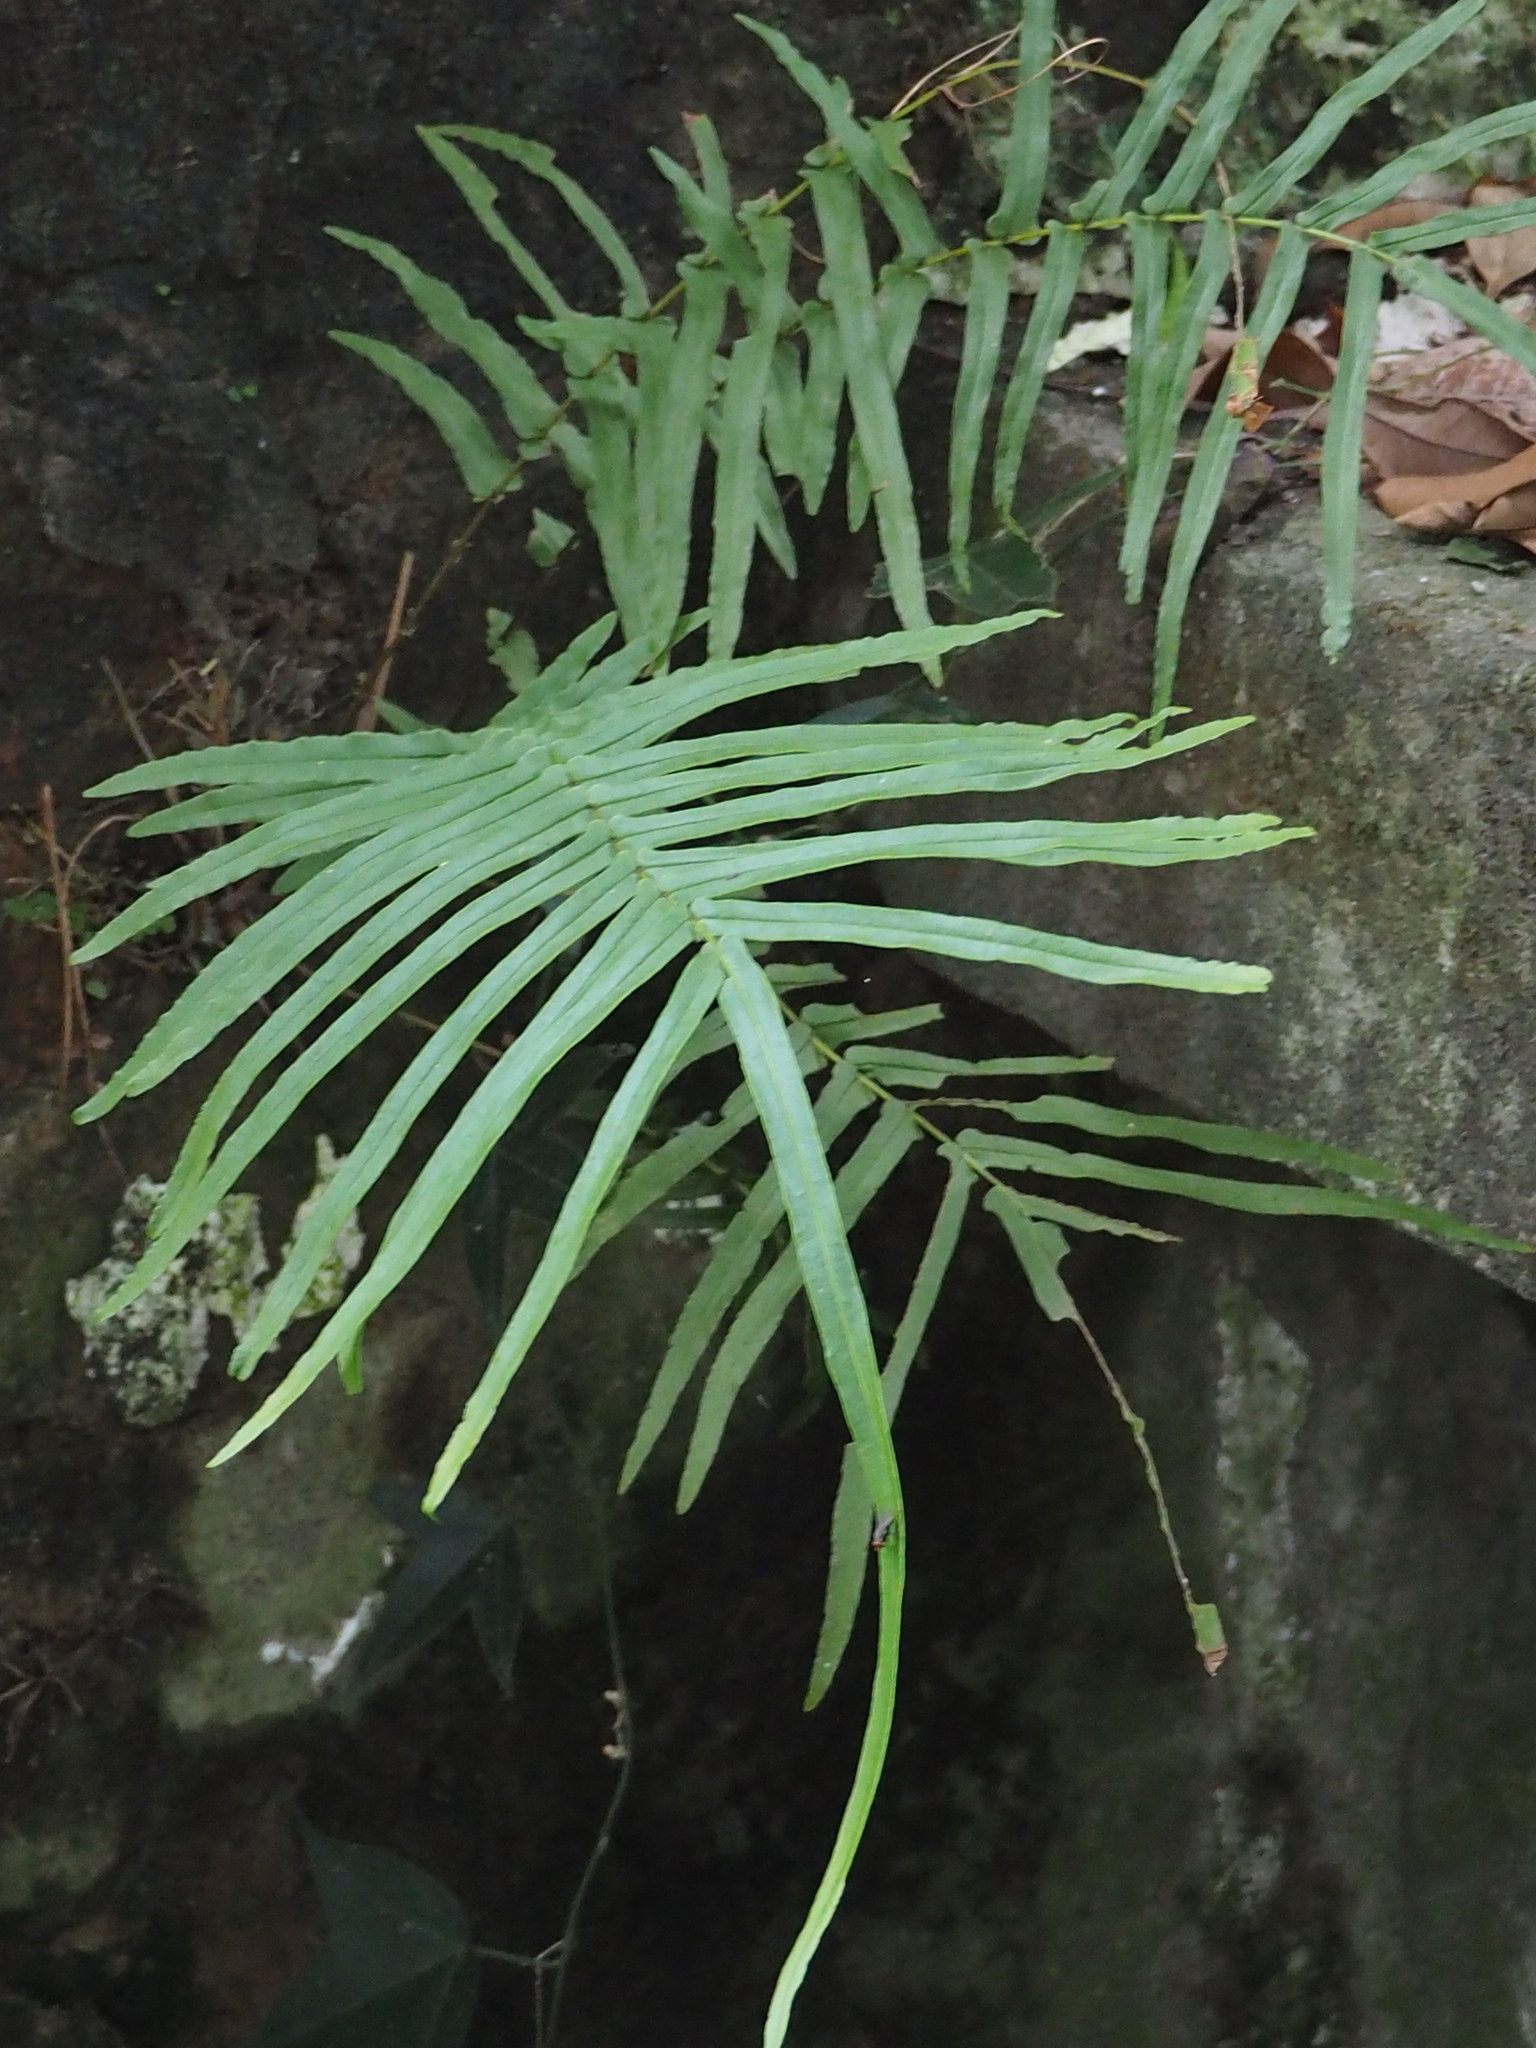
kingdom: Plantae
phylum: Tracheophyta
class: Polypodiopsida
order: Polypodiales
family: Pteridaceae
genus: Pteris
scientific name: Pteris vittata
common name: Ladder brake
